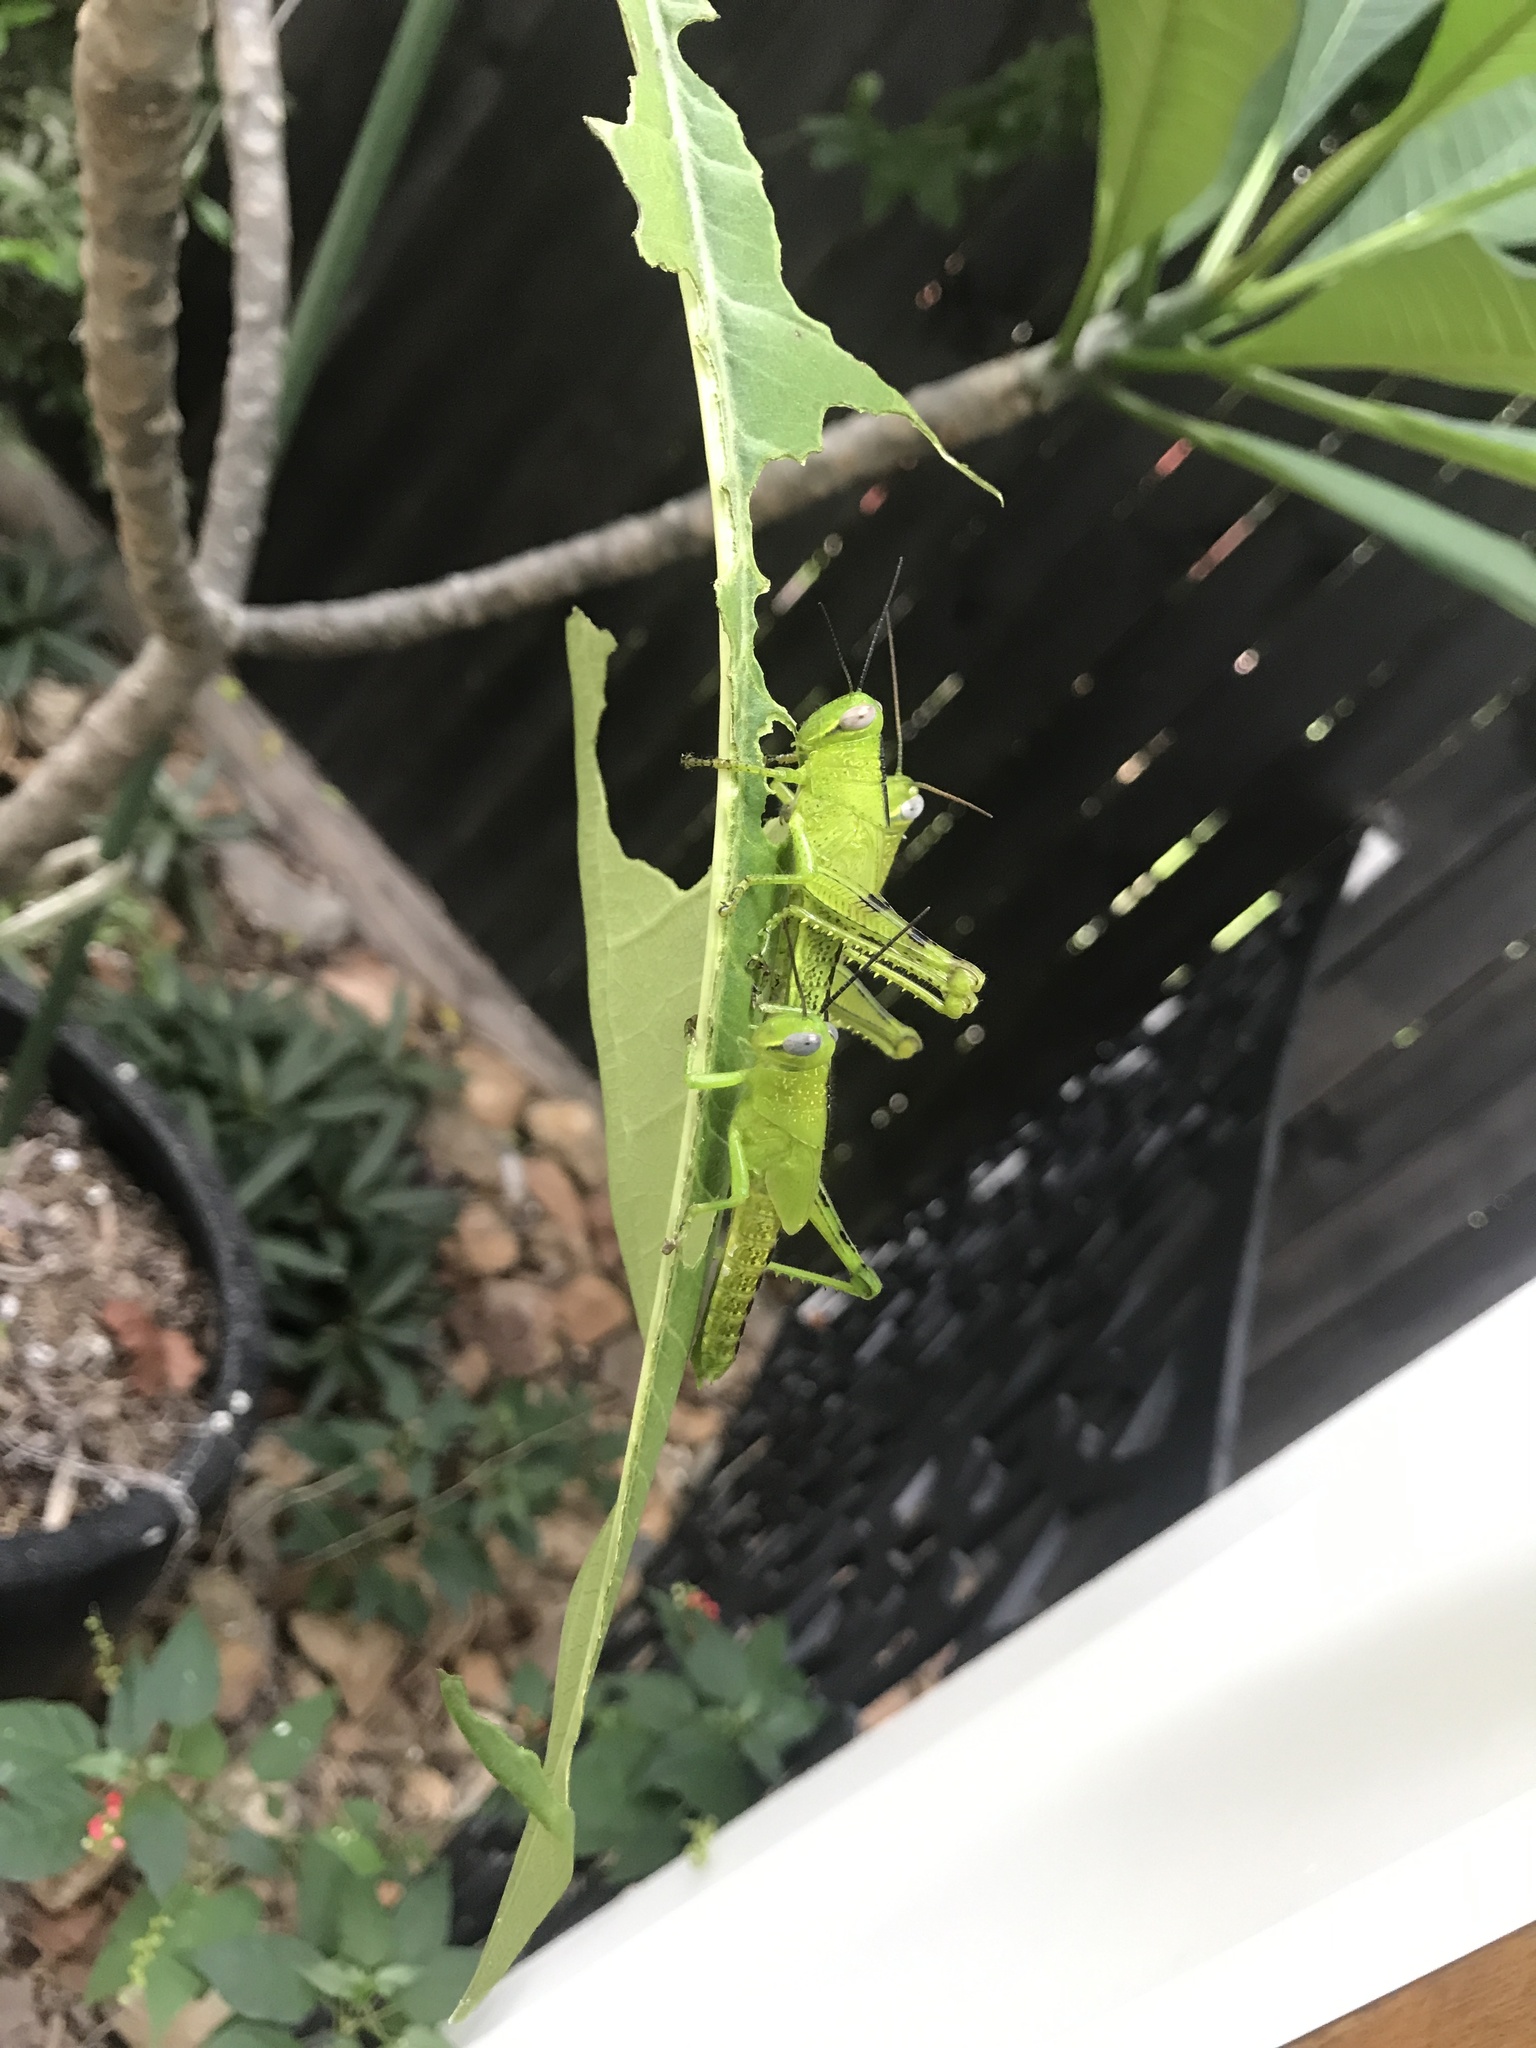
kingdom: Animalia
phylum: Arthropoda
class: Insecta
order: Orthoptera
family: Acrididae
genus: Valanga
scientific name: Valanga irregularis
